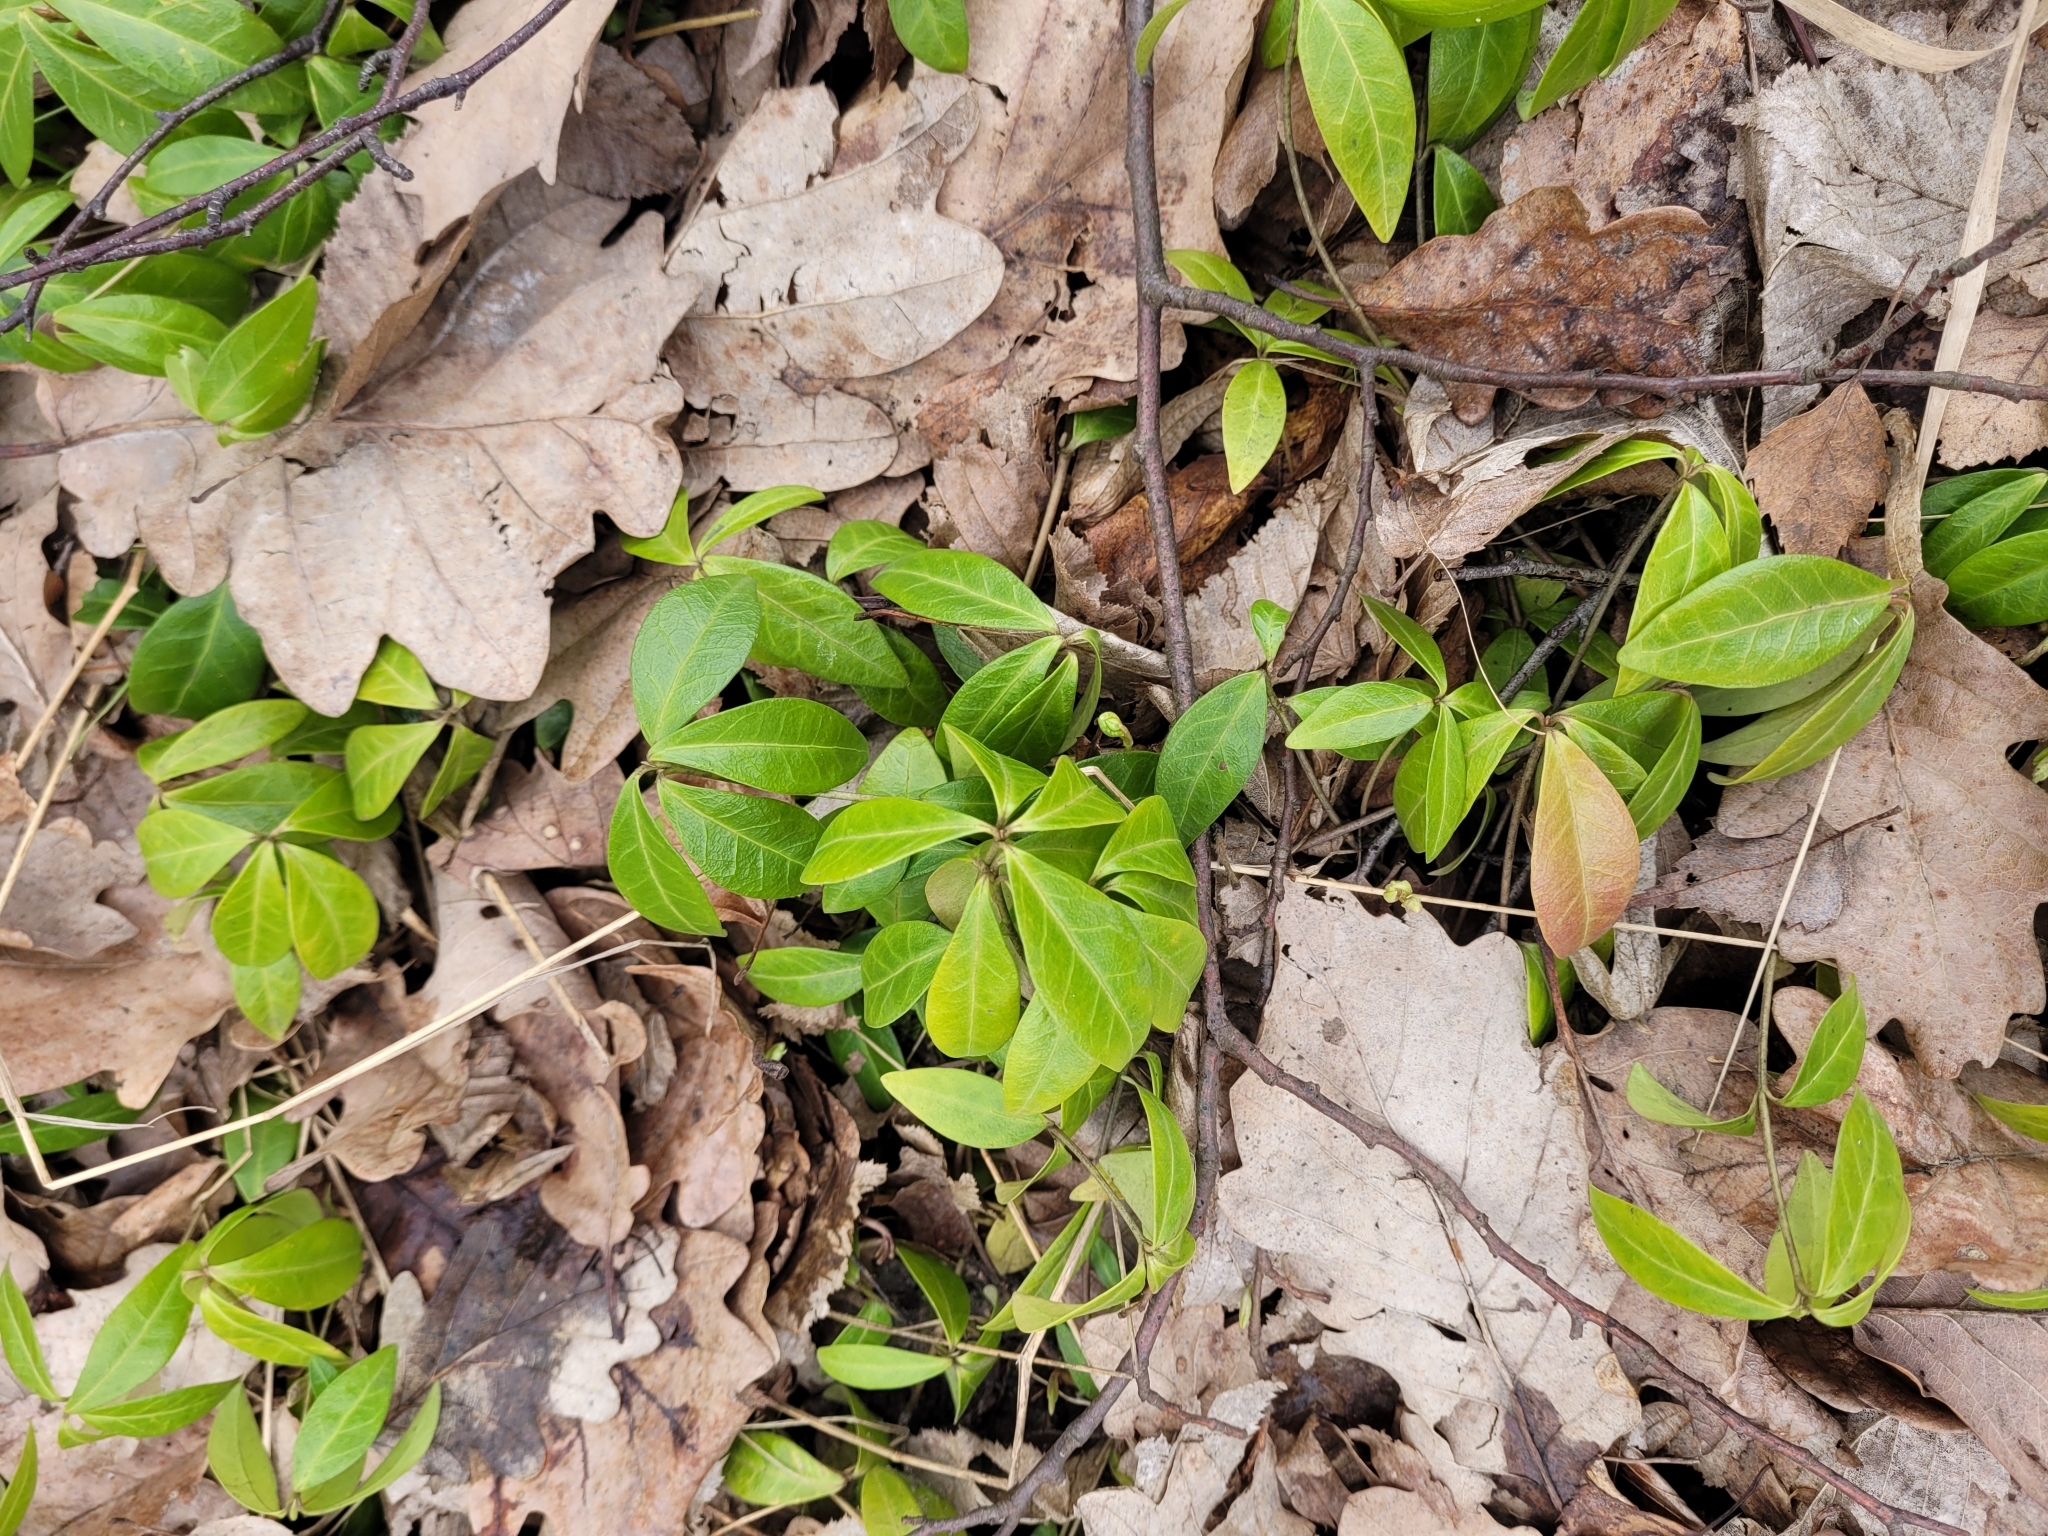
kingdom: Plantae
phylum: Tracheophyta
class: Magnoliopsida
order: Gentianales
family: Apocynaceae
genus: Vinca
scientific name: Vinca minor
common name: Lesser periwinkle
